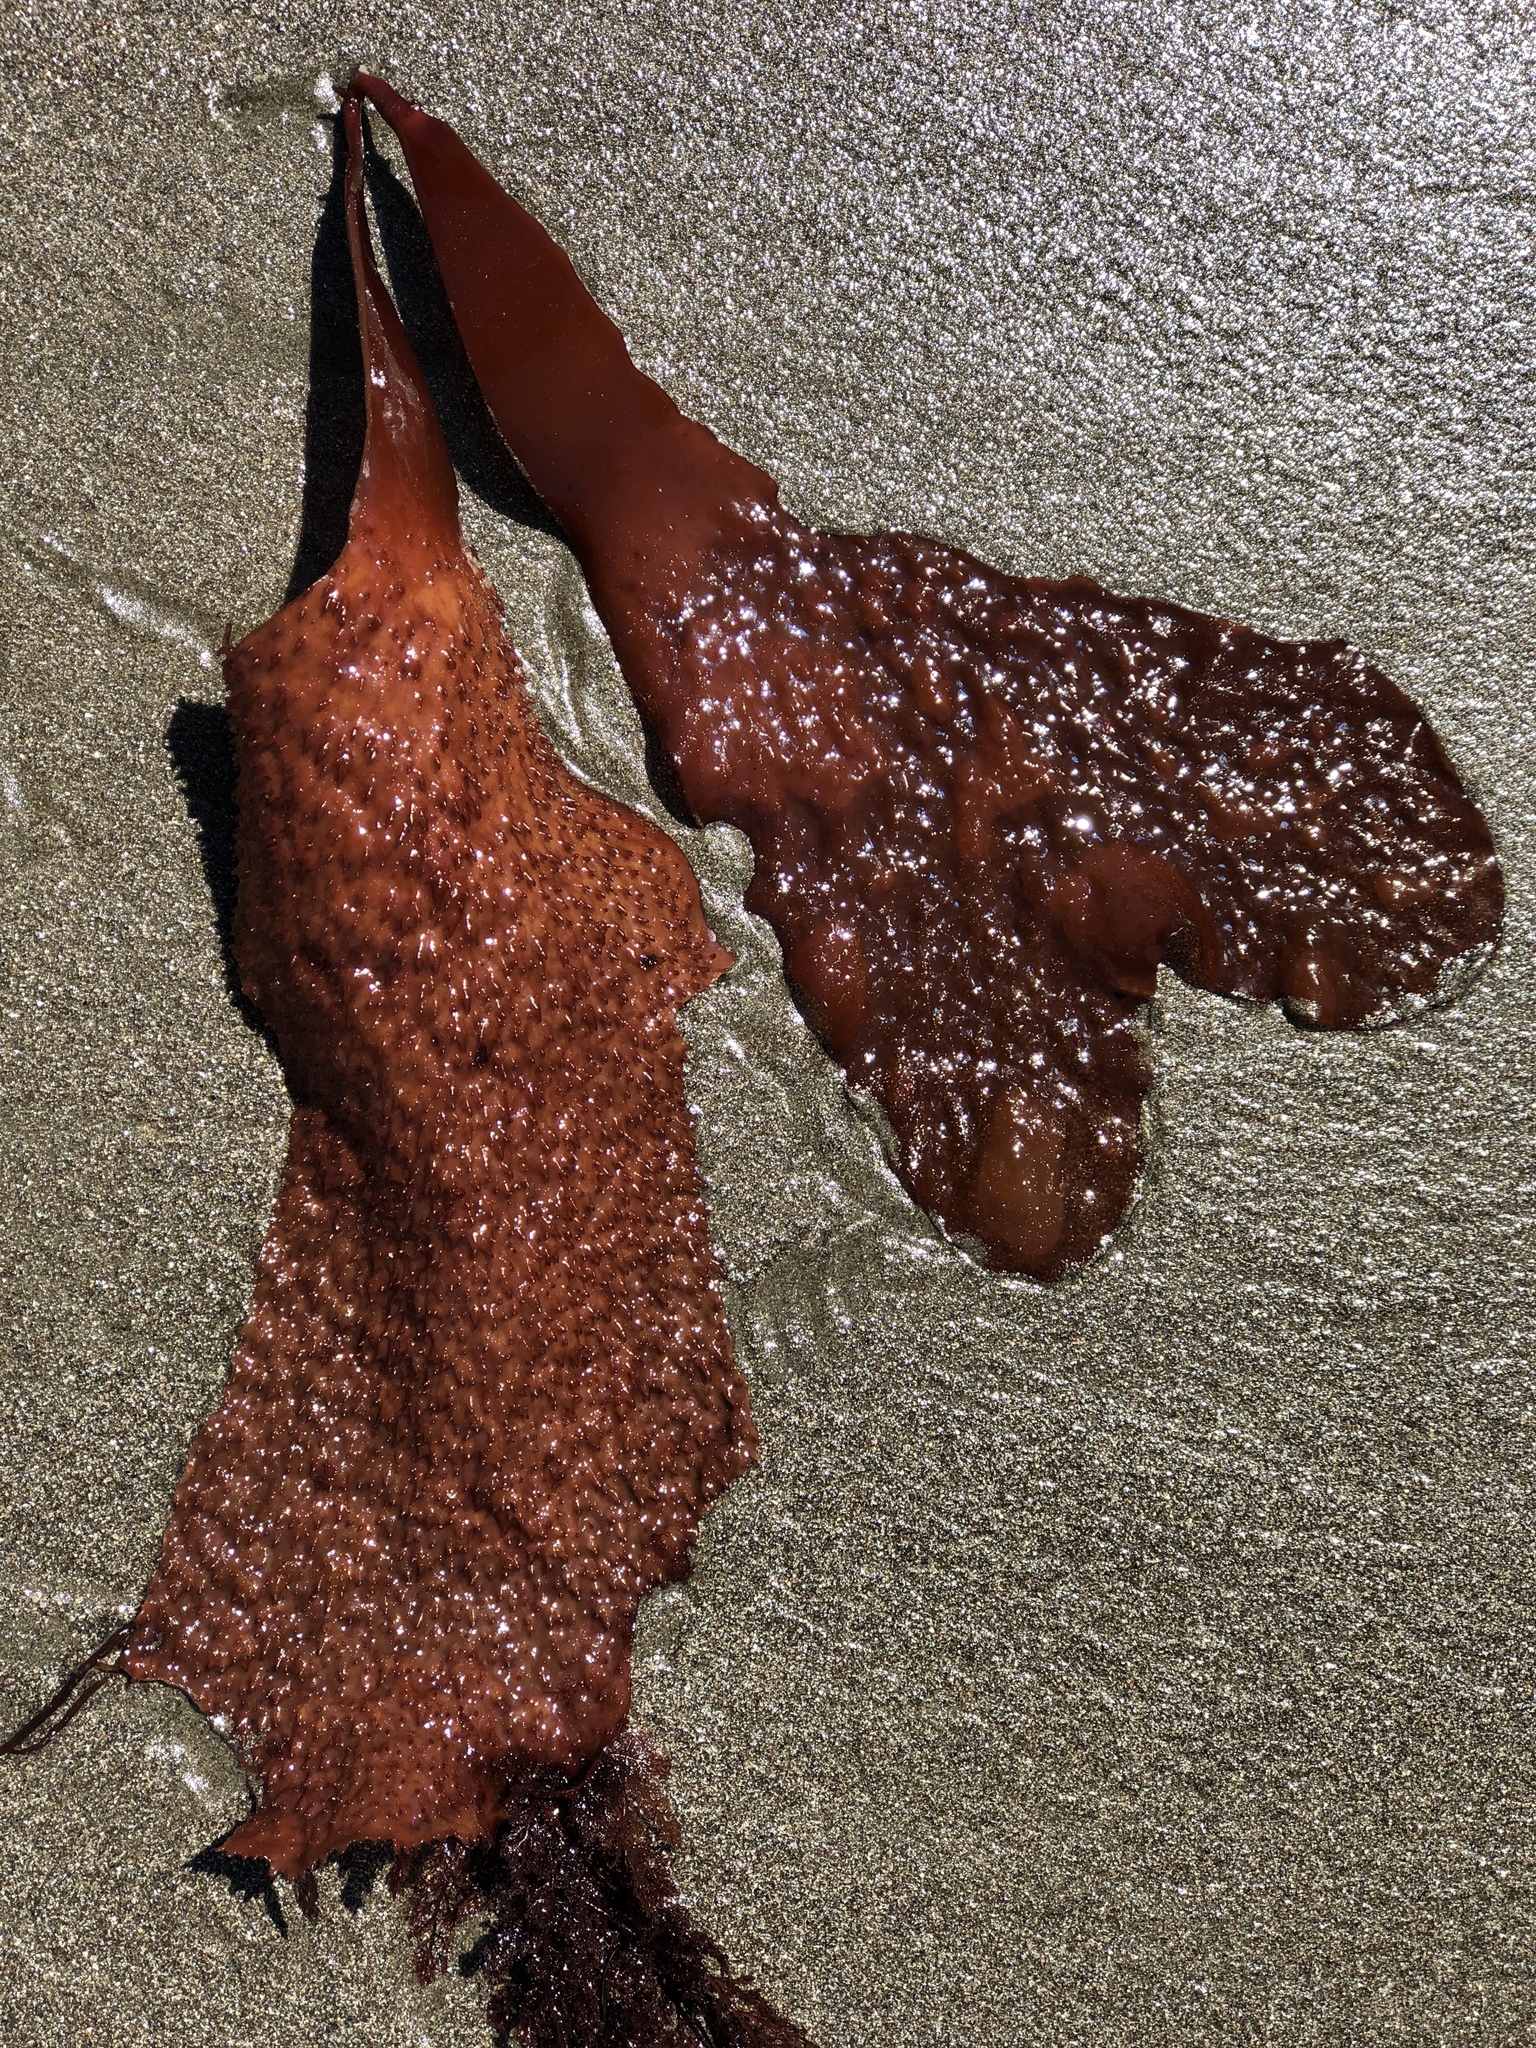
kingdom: Plantae
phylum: Rhodophyta
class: Florideophyceae
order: Gigartinales
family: Gigartinaceae
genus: Chondracanthus
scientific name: Chondracanthus exasperatus
